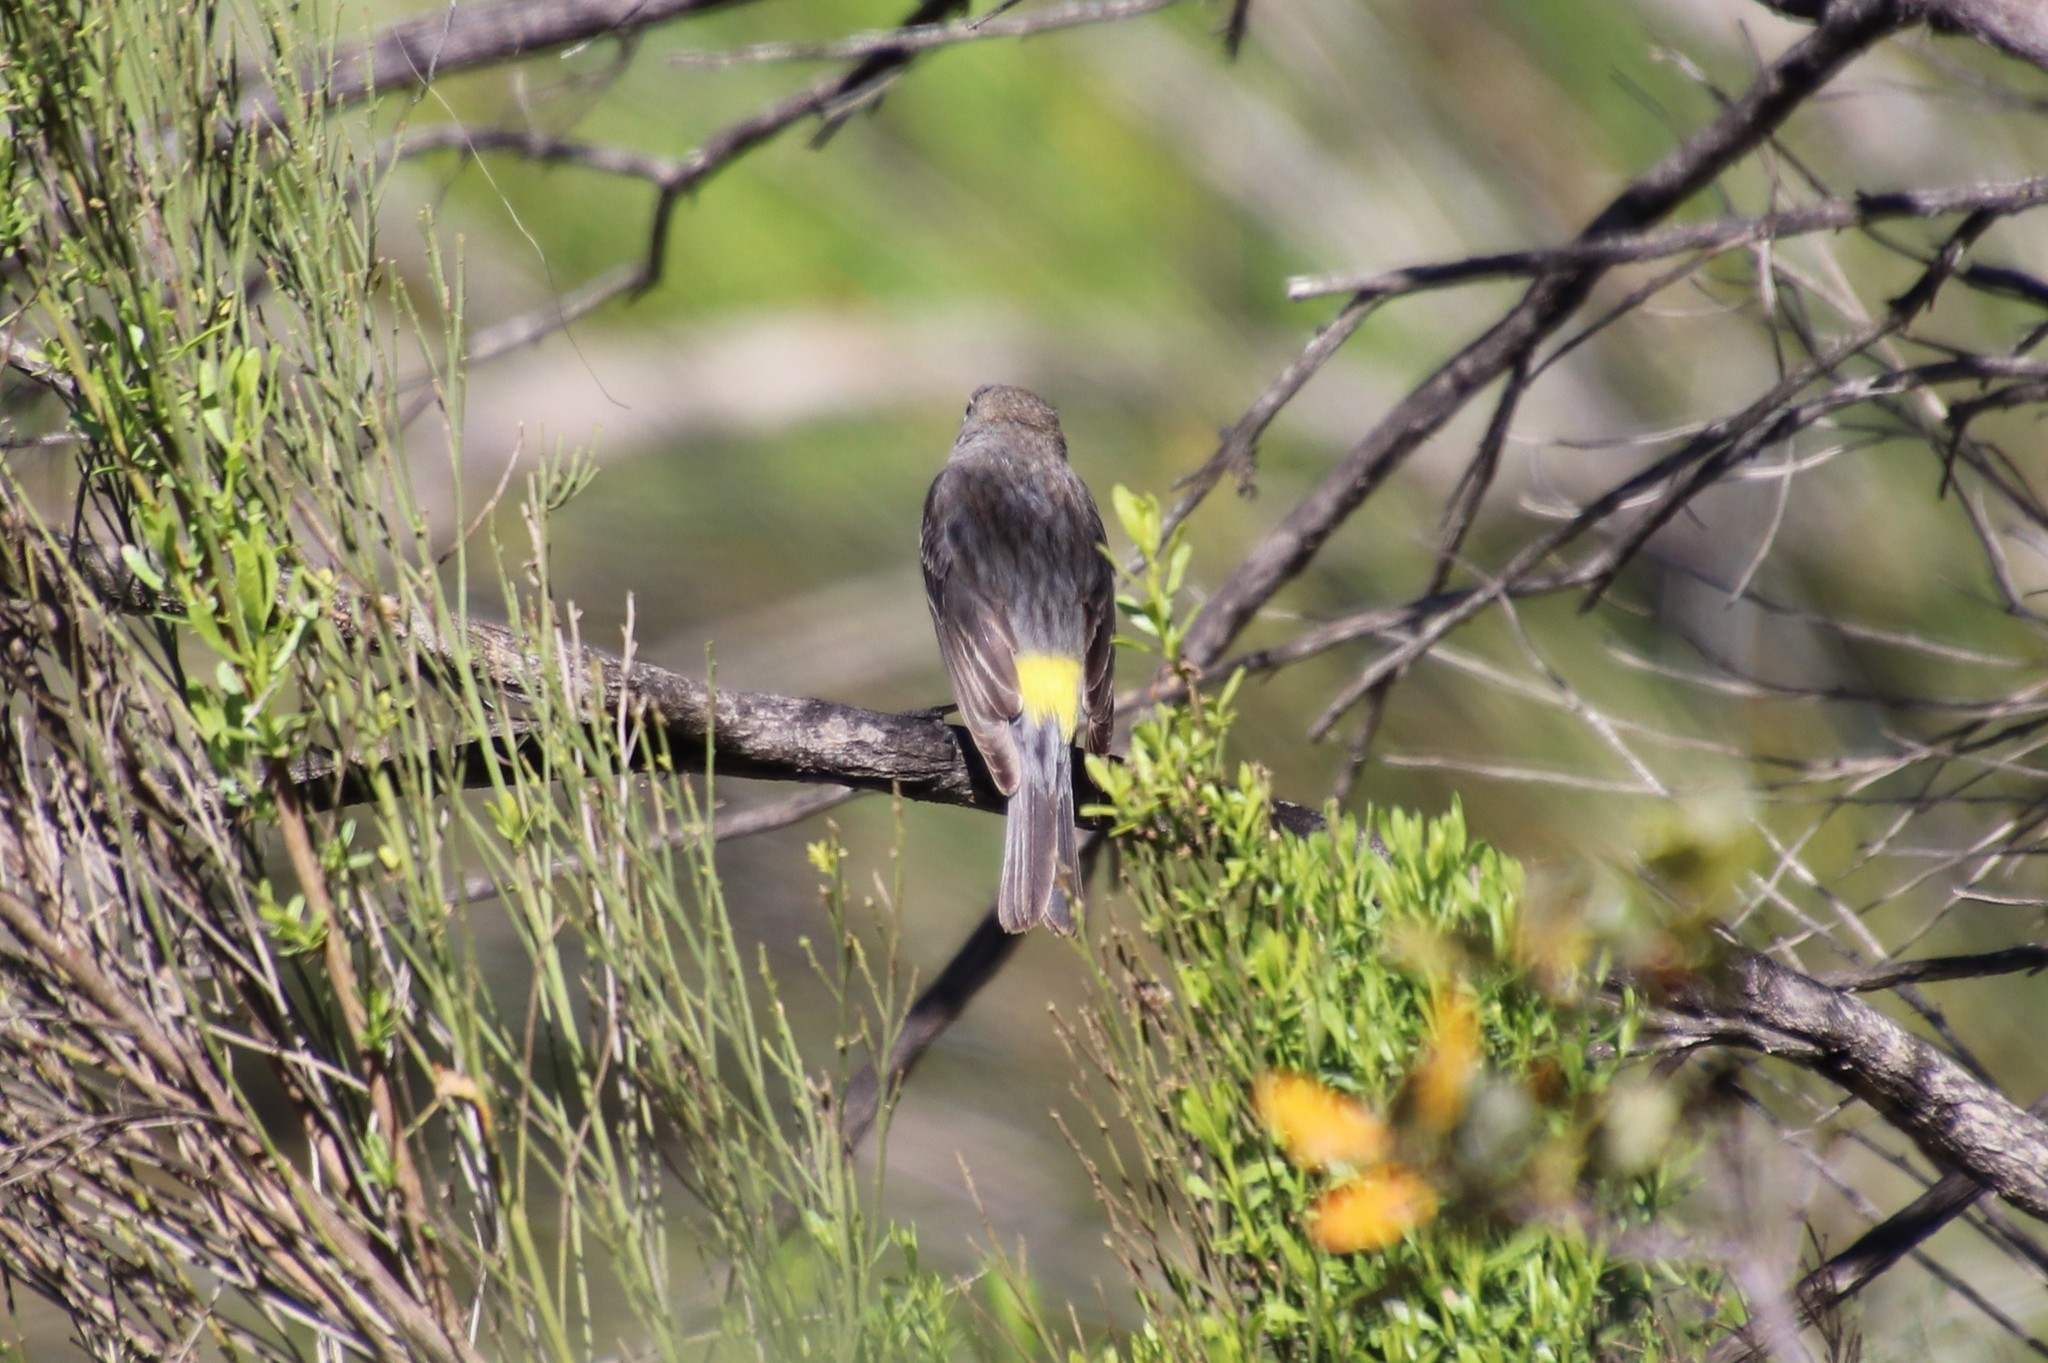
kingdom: Animalia
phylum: Chordata
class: Aves
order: Passeriformes
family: Parulidae
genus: Setophaga
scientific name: Setophaga coronata
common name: Myrtle warbler
